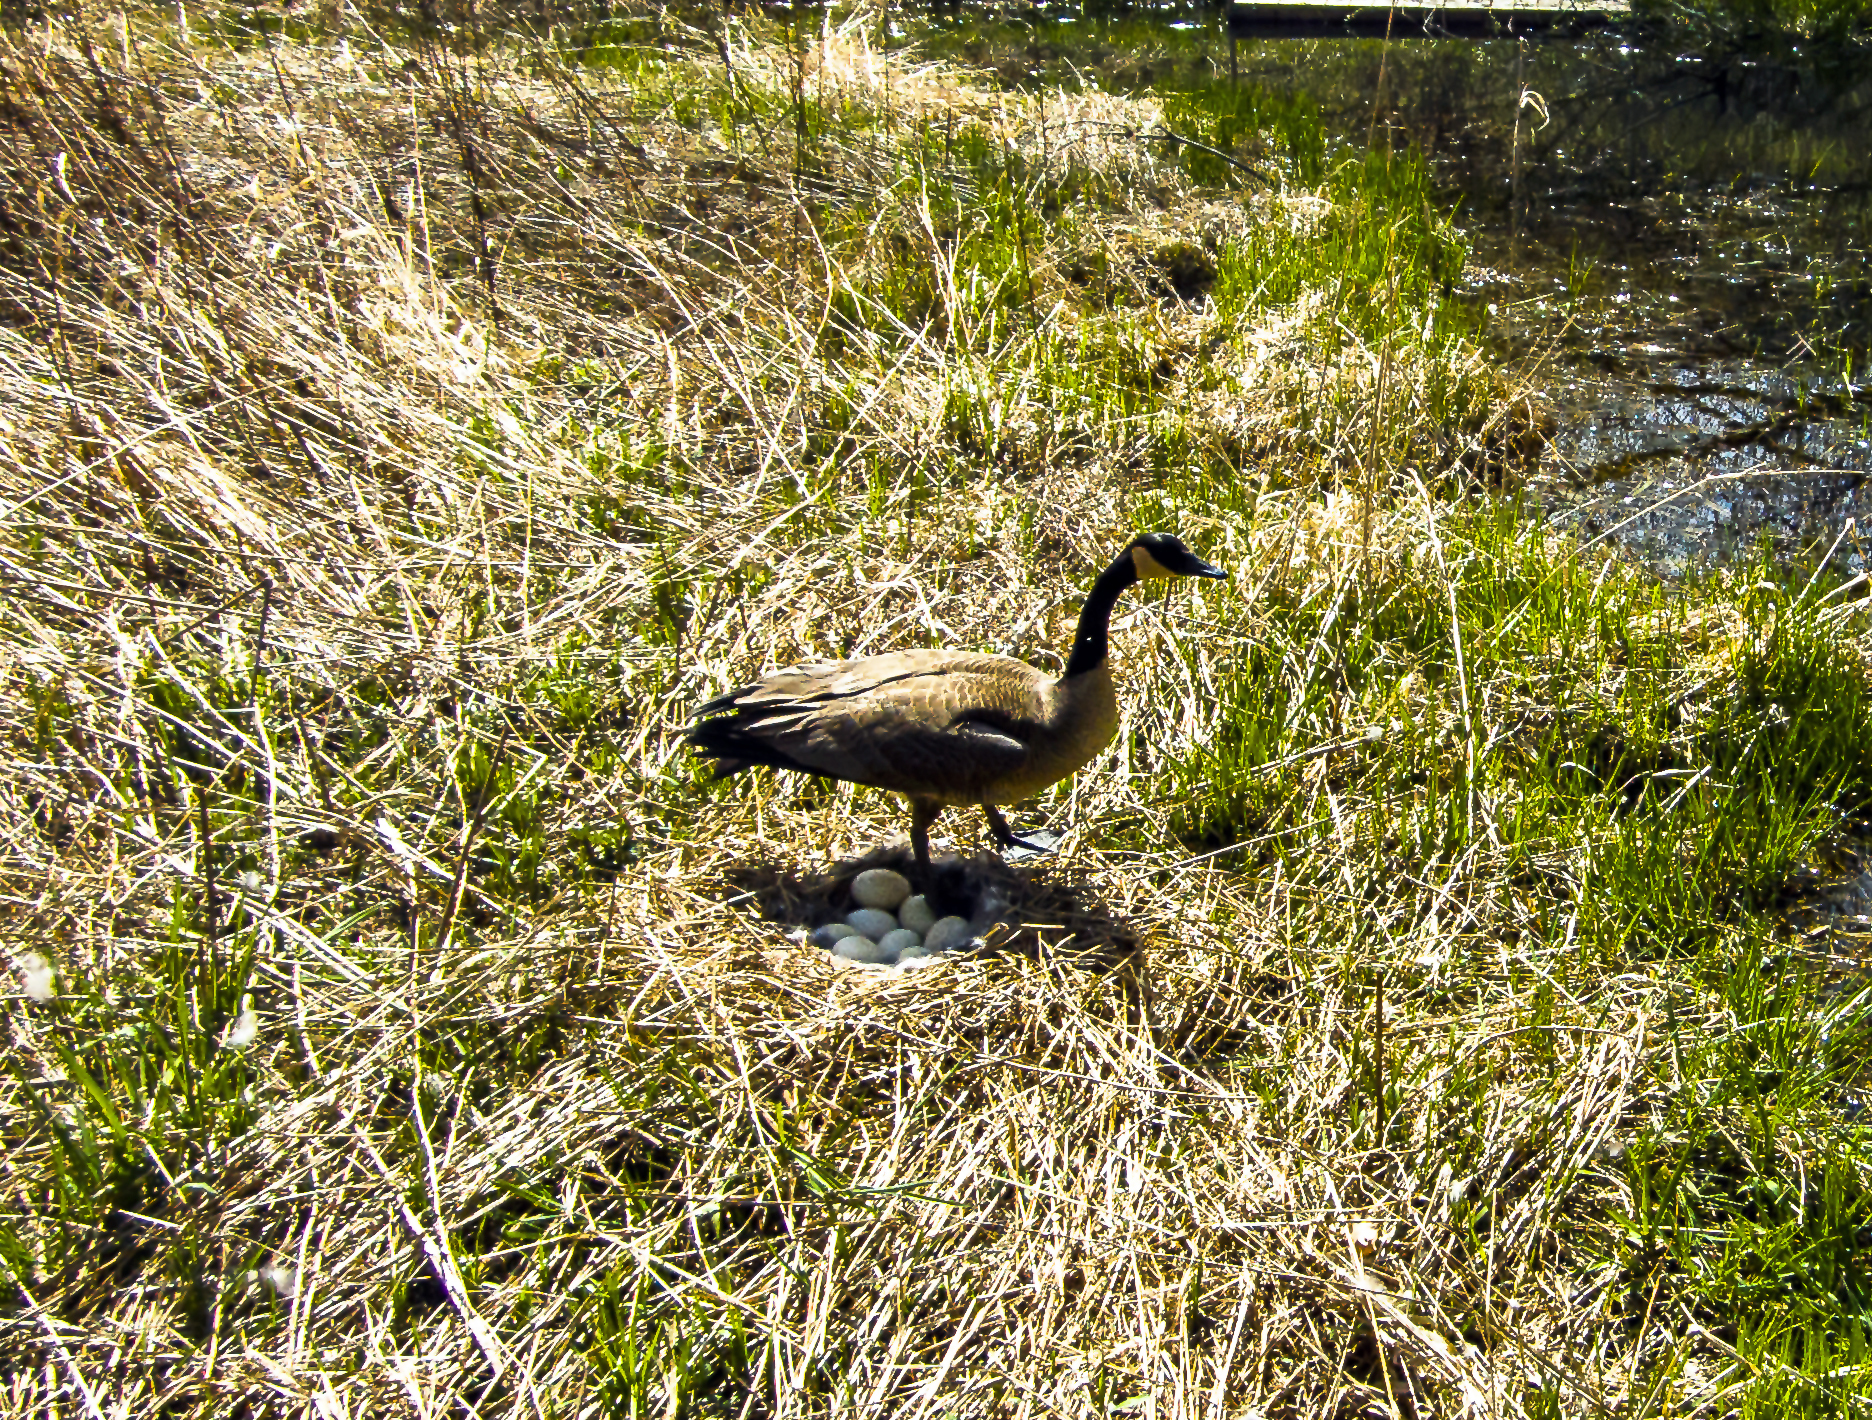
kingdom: Animalia
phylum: Chordata
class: Aves
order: Anseriformes
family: Anatidae
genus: Branta
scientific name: Branta canadensis
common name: Canada goose
